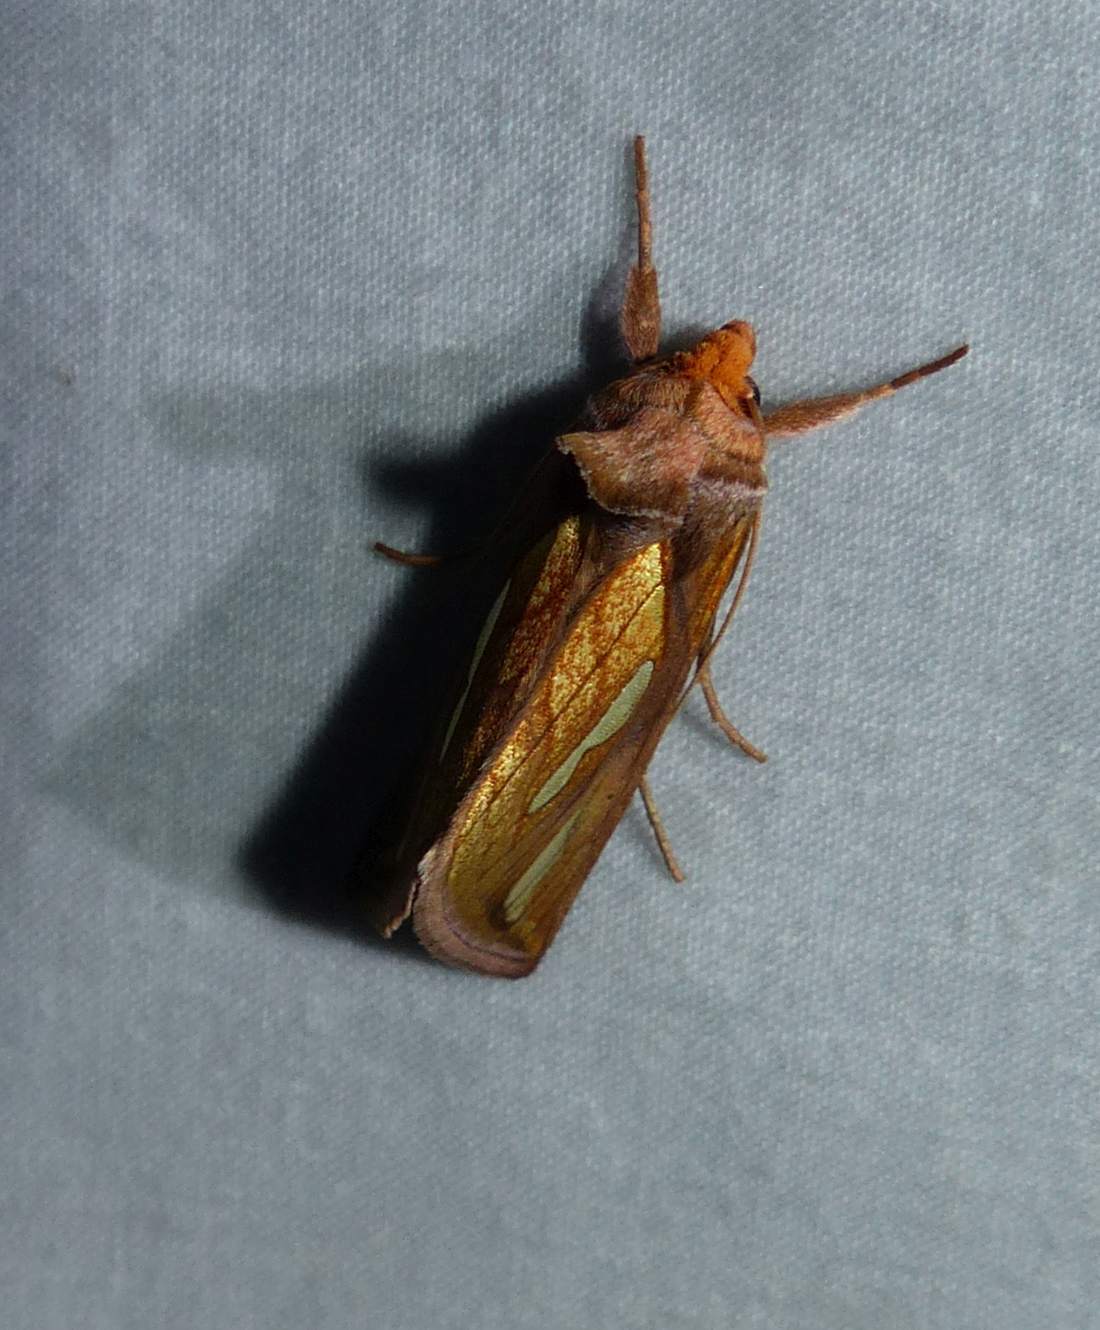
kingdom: Animalia
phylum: Arthropoda
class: Insecta
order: Lepidoptera
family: Noctuidae
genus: Plusia
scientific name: Plusia contexta
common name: Connected looper moth
